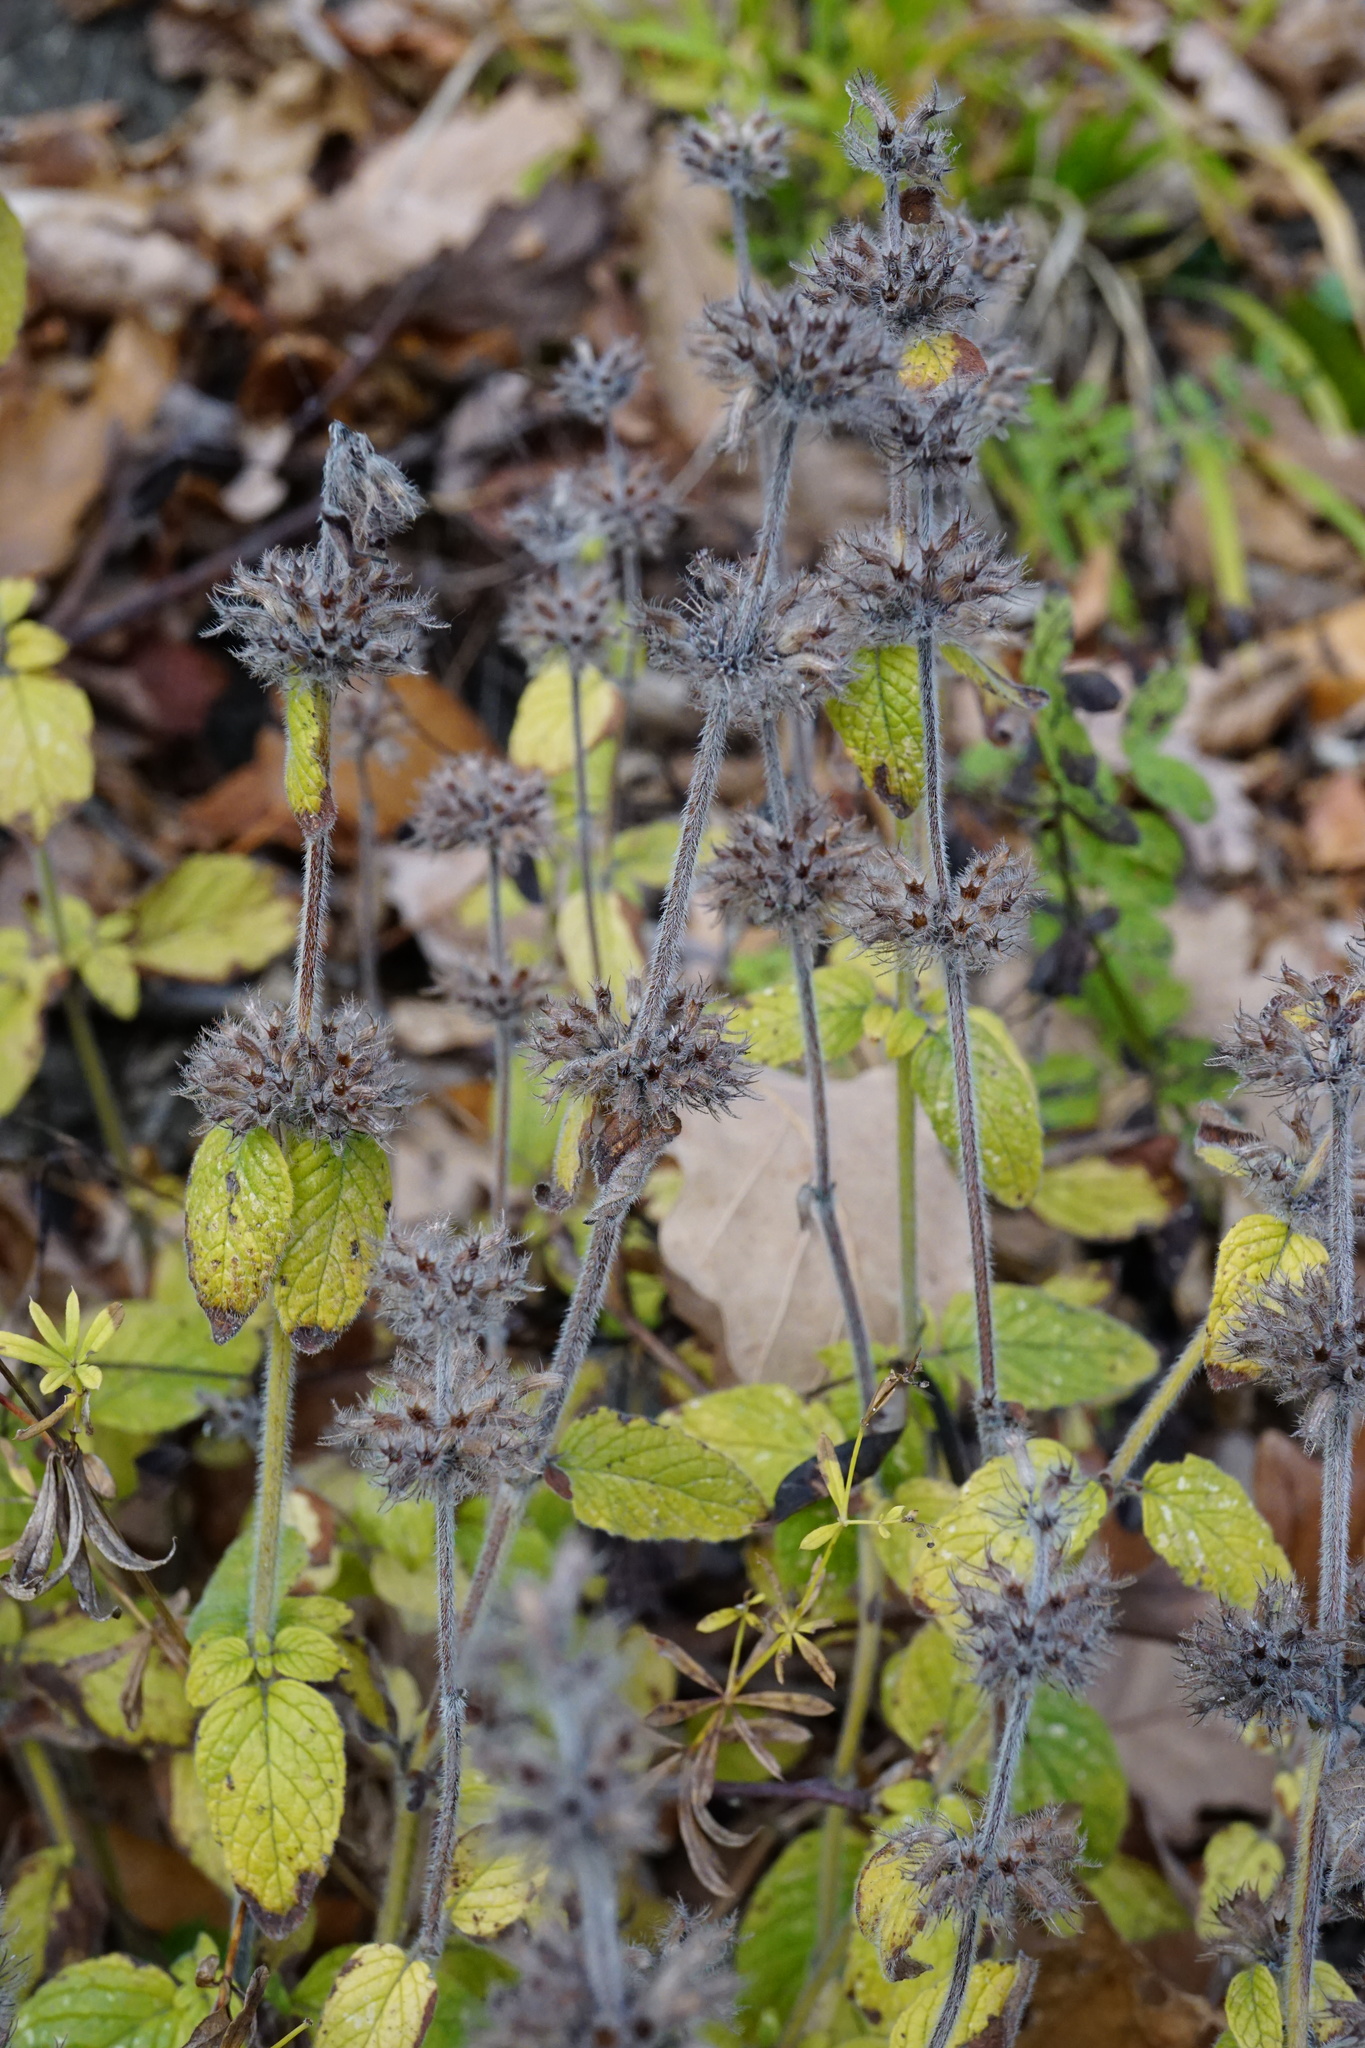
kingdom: Plantae
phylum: Tracheophyta
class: Magnoliopsida
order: Lamiales
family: Lamiaceae
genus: Clinopodium
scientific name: Clinopodium vulgare
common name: Wild basil
